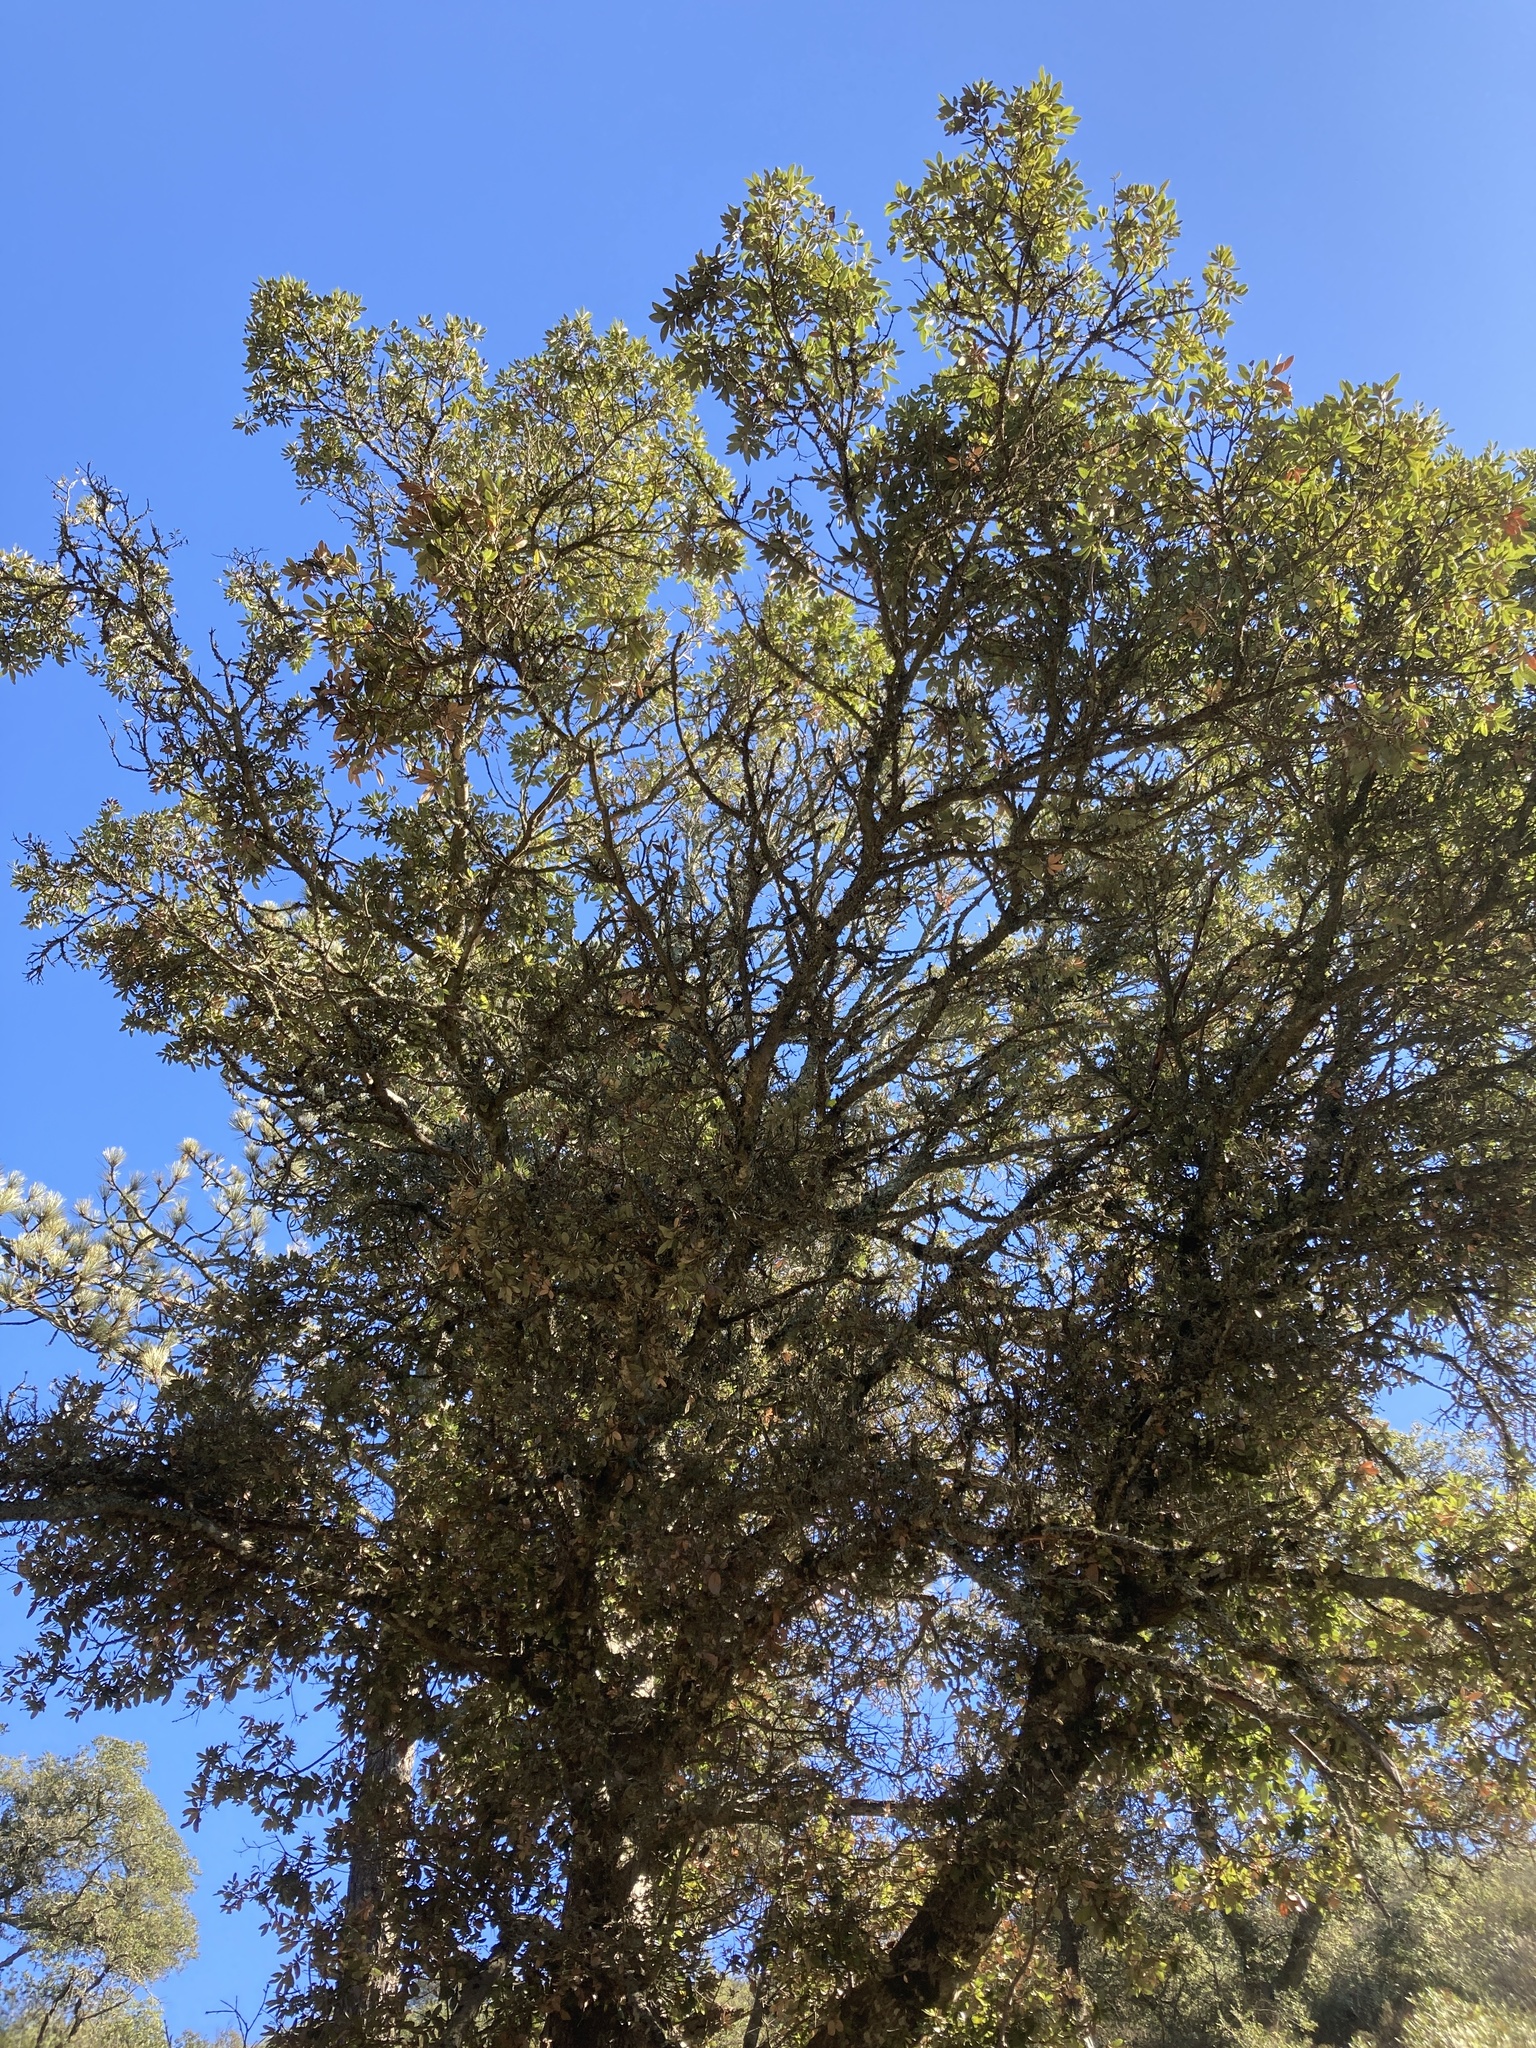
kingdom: Plantae
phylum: Tracheophyta
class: Magnoliopsida
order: Fagales
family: Fagaceae
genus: Notholithocarpus
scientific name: Notholithocarpus densiflorus
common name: Tan bark oak
